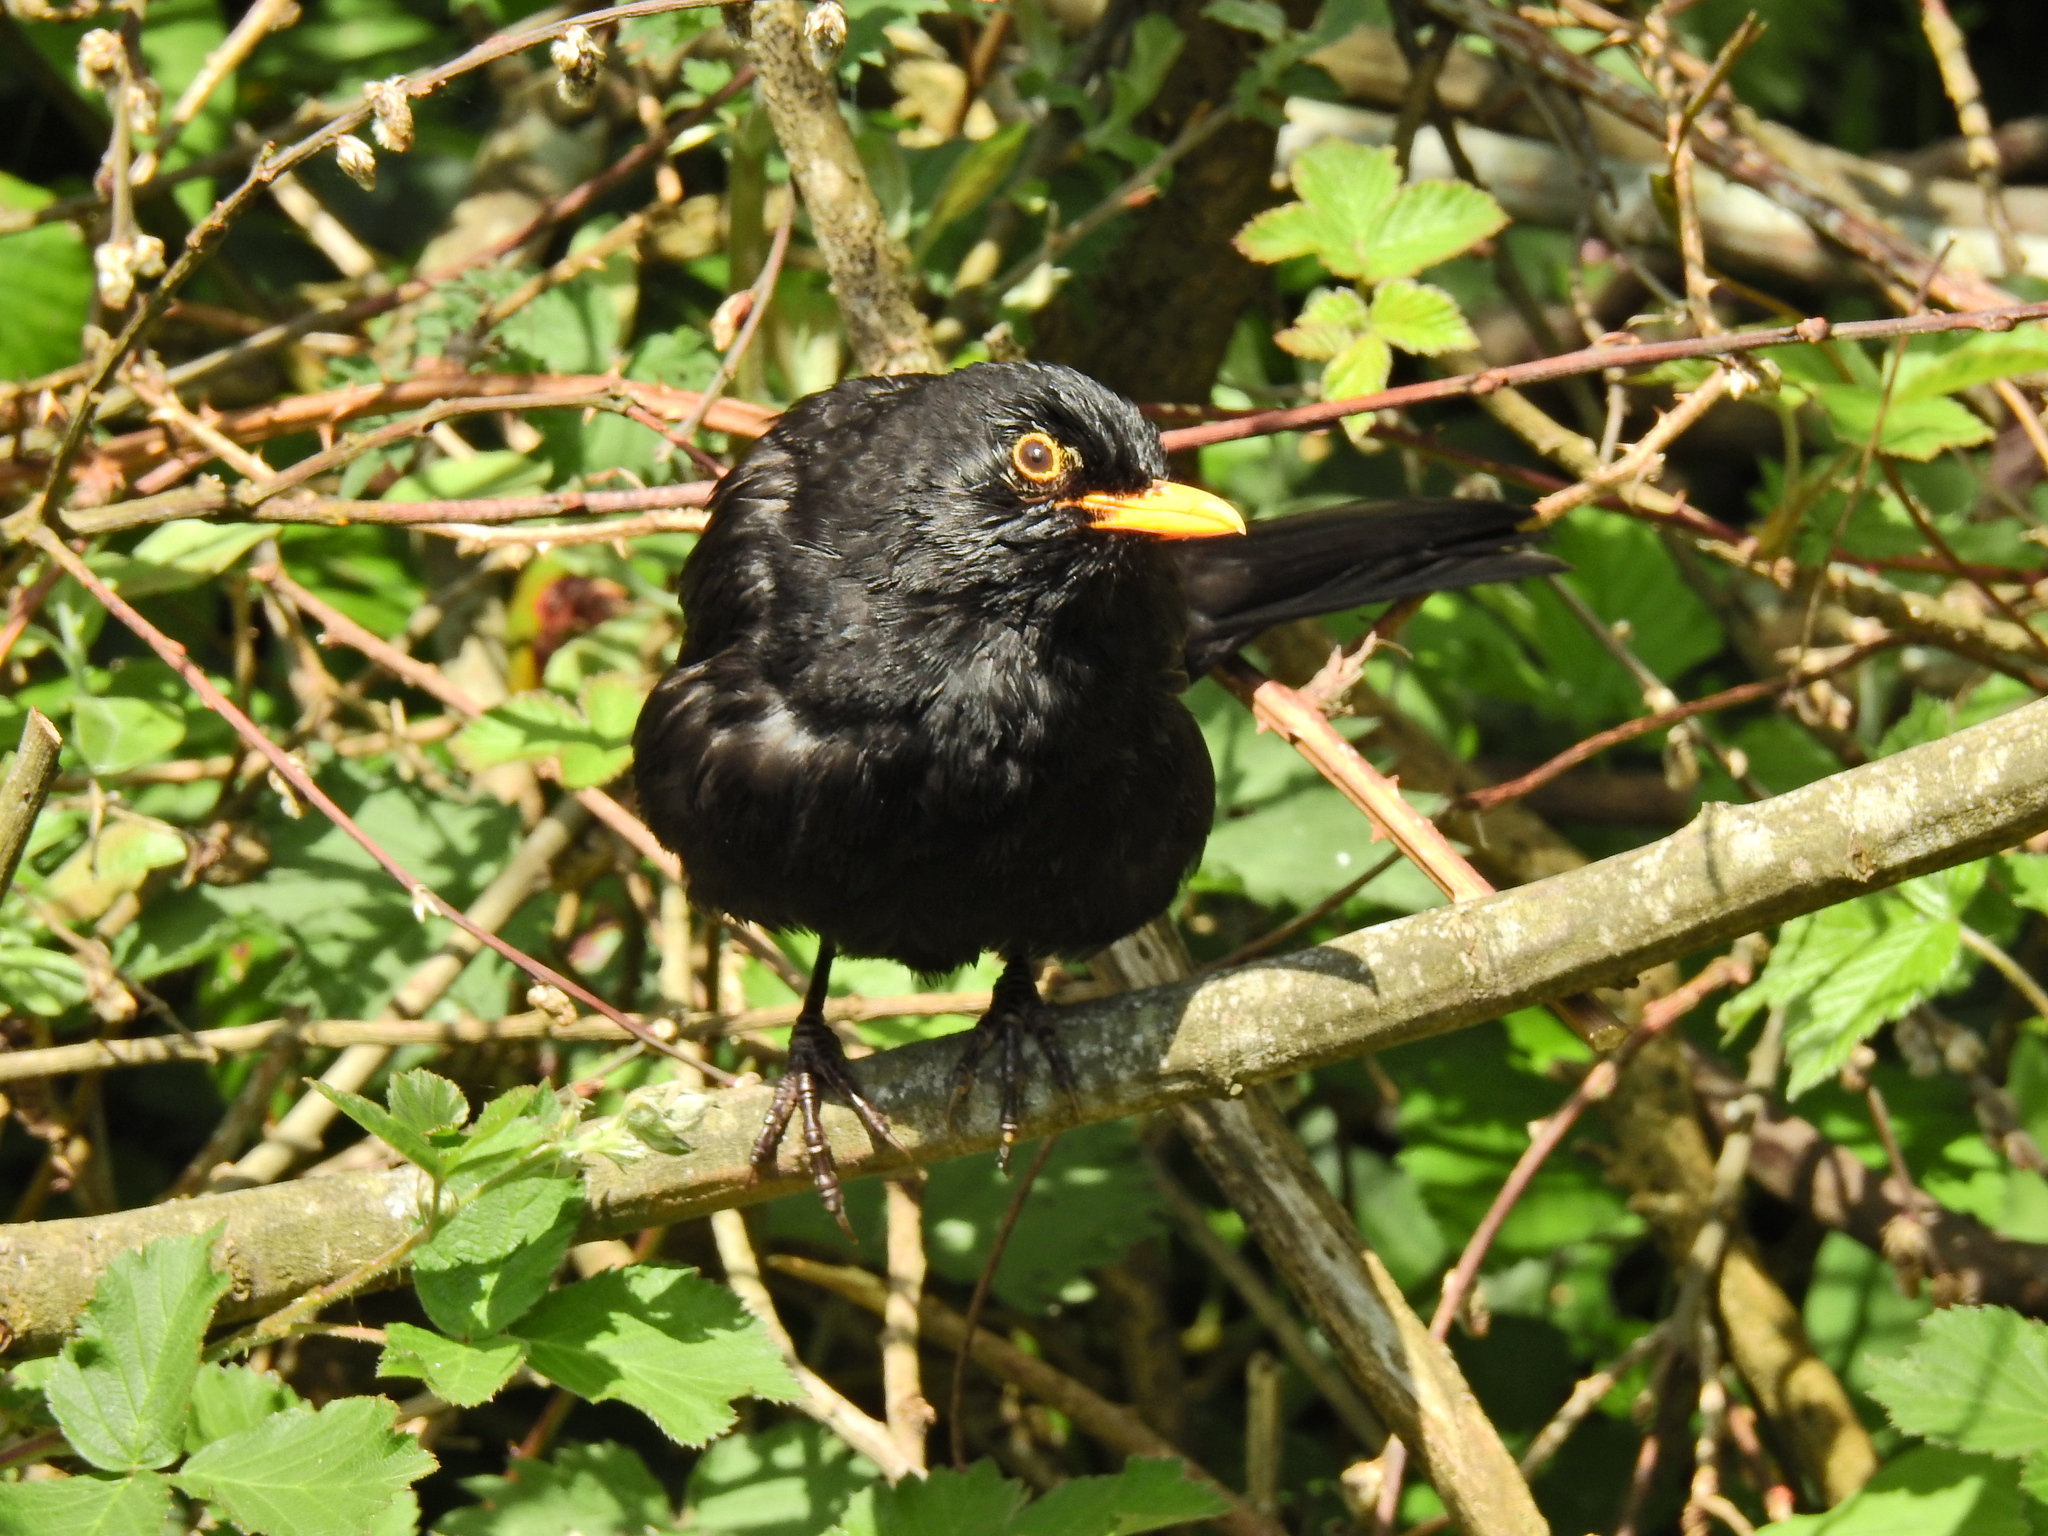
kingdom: Animalia
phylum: Chordata
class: Aves
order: Passeriformes
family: Turdidae
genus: Turdus
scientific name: Turdus merula
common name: Common blackbird
